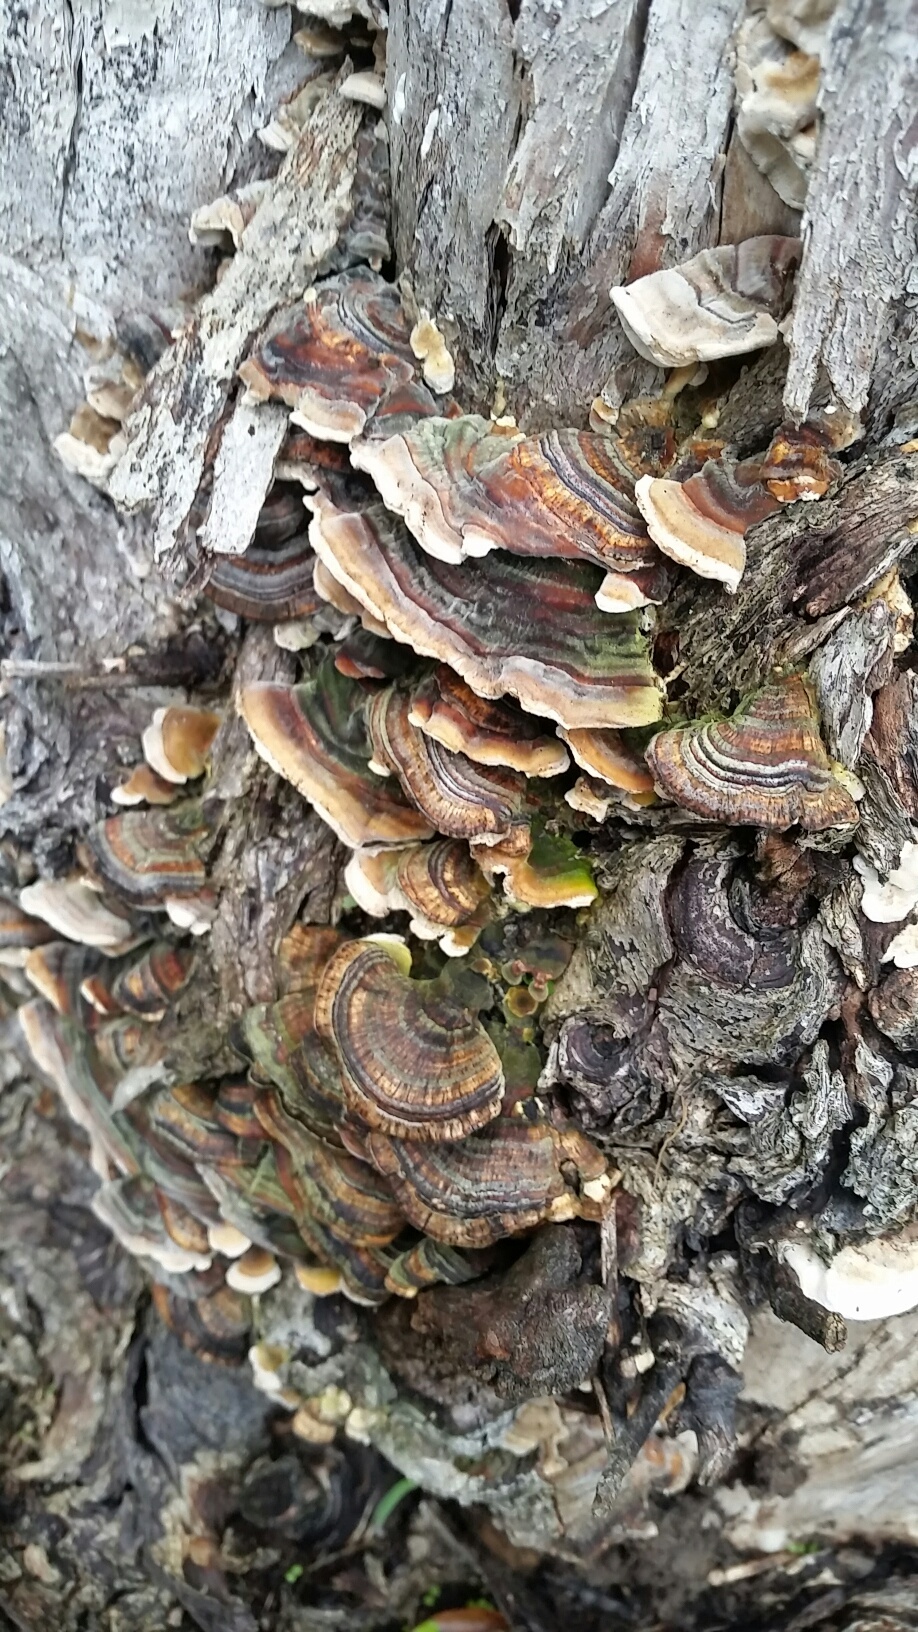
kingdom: Fungi
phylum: Basidiomycota
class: Agaricomycetes
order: Polyporales
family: Polyporaceae
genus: Trametes
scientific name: Trametes versicolor
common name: Turkeytail
